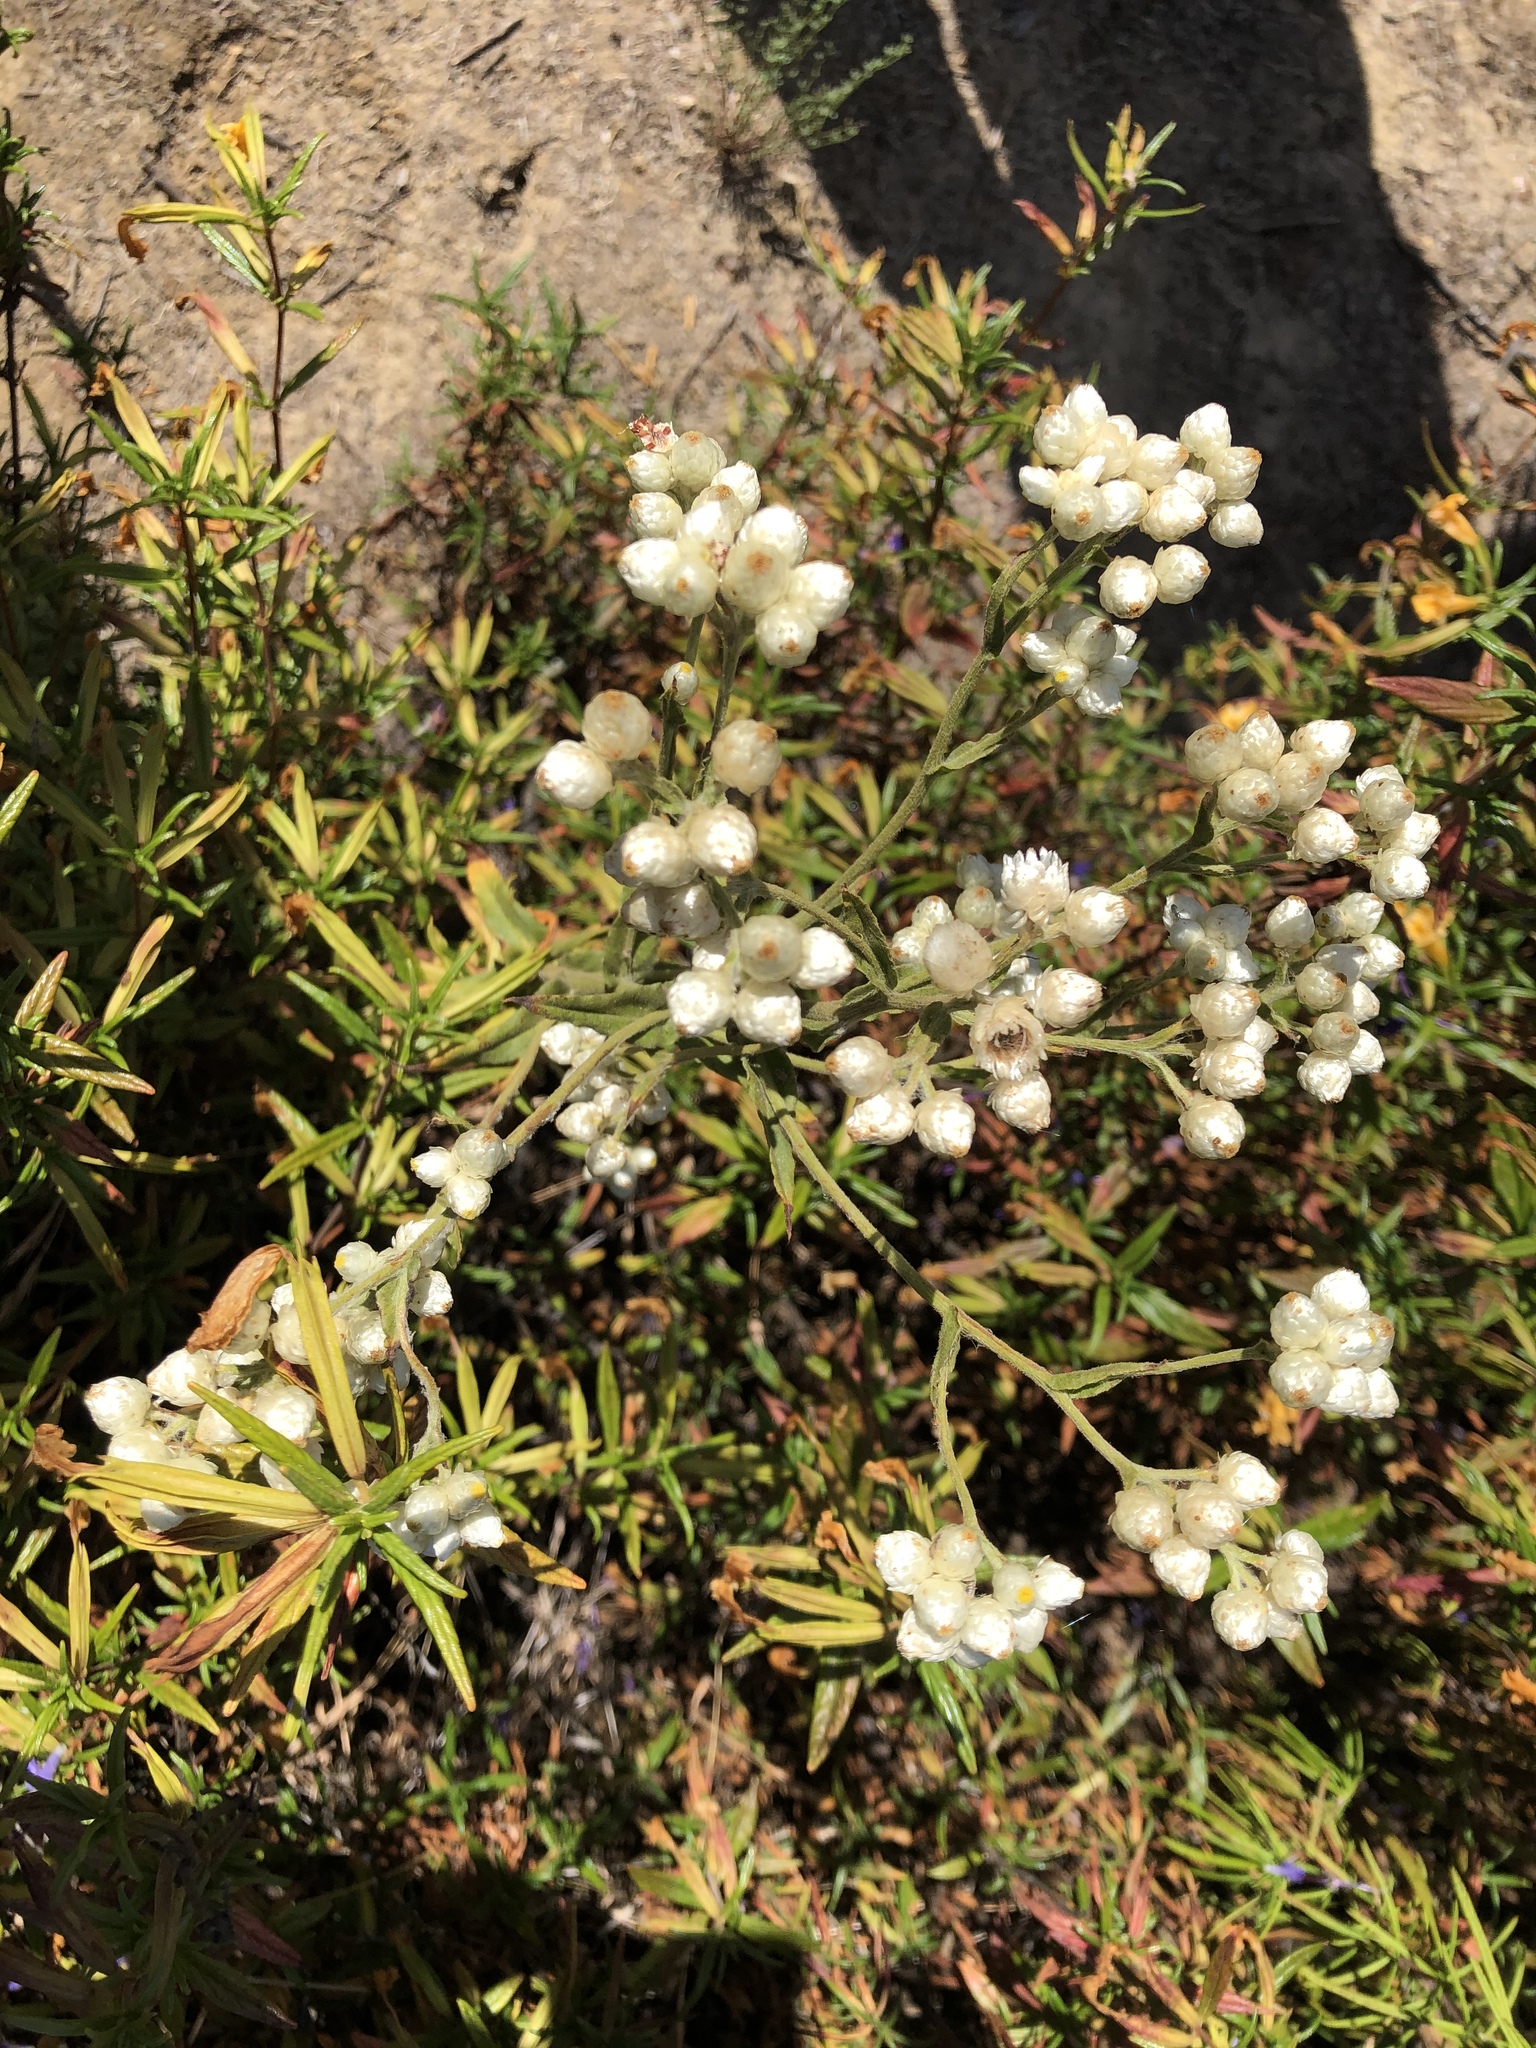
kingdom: Plantae
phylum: Tracheophyta
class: Magnoliopsida
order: Asterales
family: Asteraceae
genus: Pseudognaphalium
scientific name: Pseudognaphalium californicum
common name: California rabbit-tobacco
